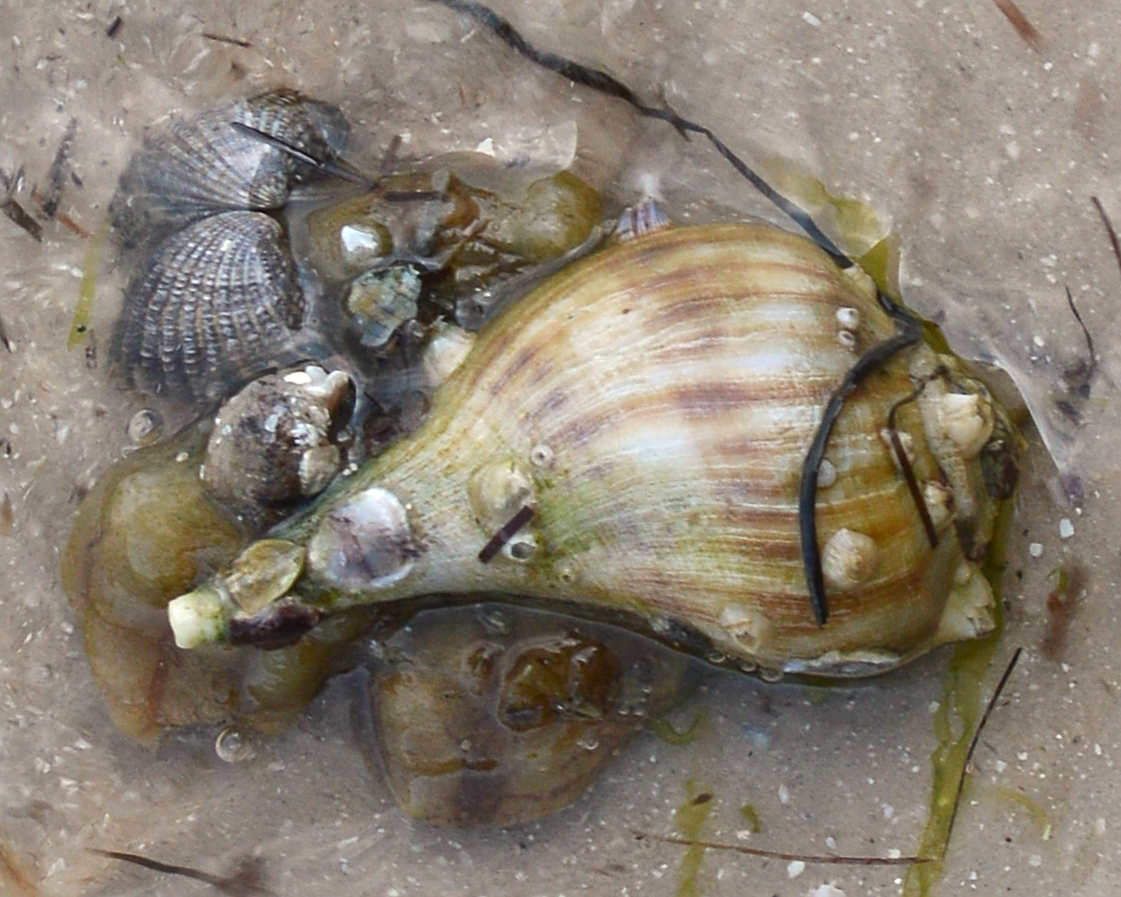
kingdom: Animalia
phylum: Mollusca
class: Gastropoda
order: Neogastropoda
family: Busyconidae
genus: Fulguropsis
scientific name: Fulguropsis pyruloides
